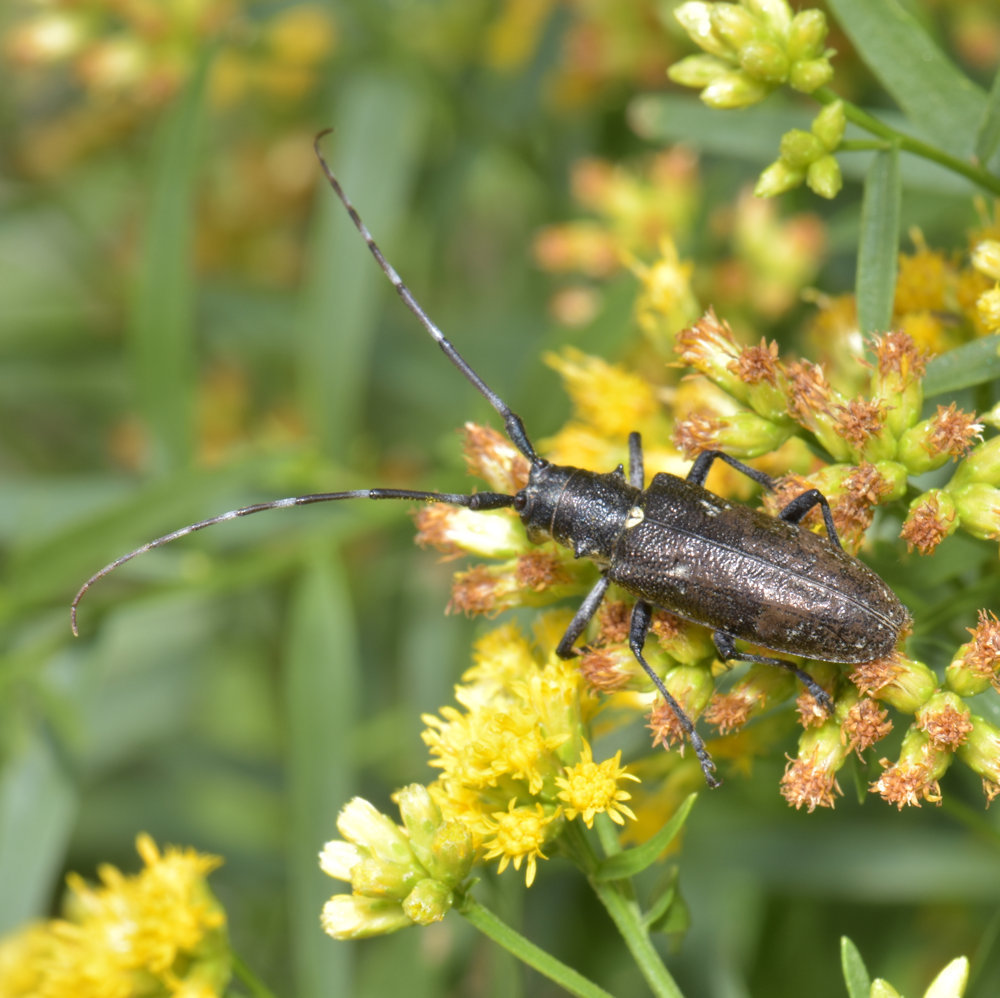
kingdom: Animalia
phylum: Arthropoda
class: Insecta
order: Coleoptera
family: Cerambycidae
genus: Monochamus
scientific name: Monochamus scutellatus
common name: White-spotted sawyer beetle
